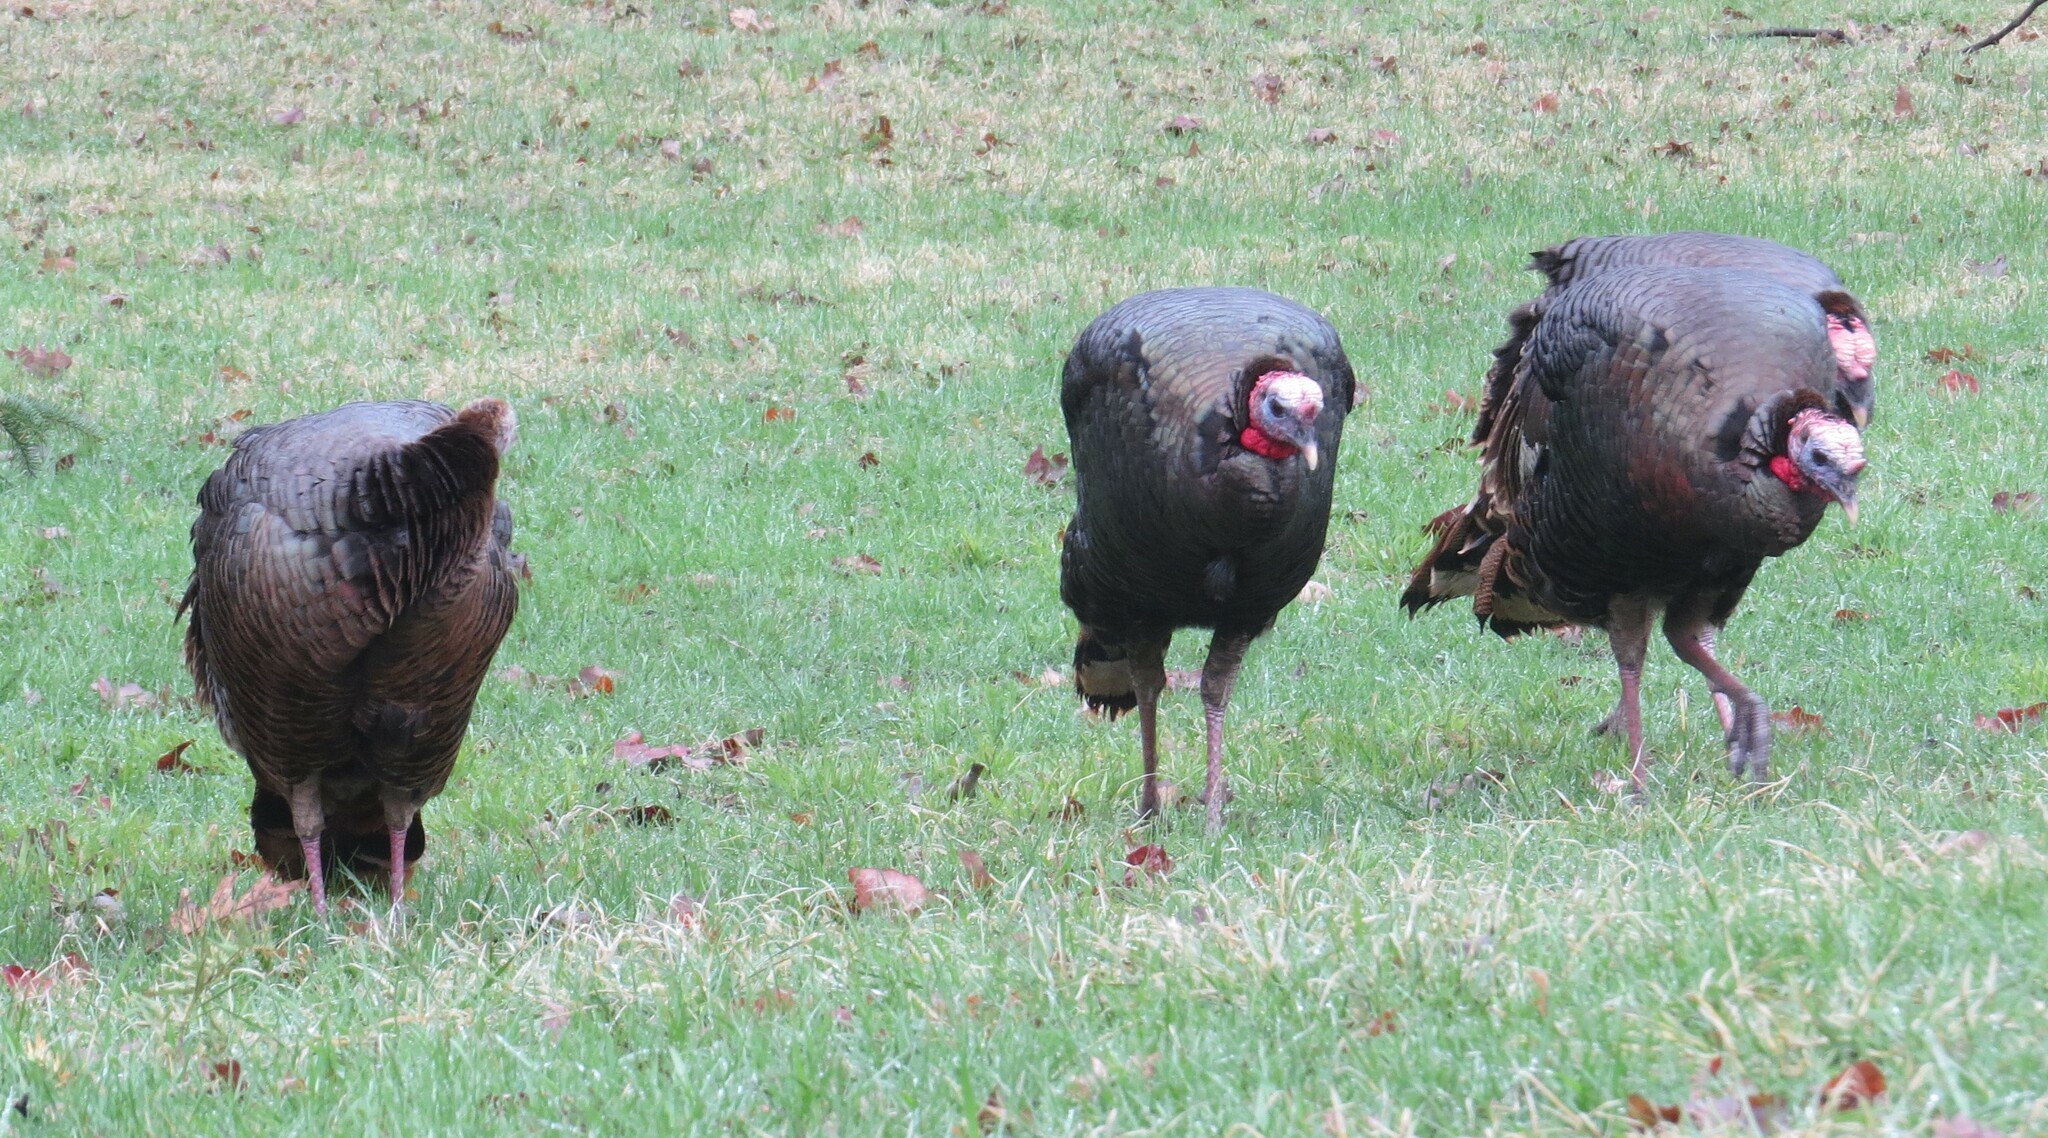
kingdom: Animalia
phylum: Chordata
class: Aves
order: Galliformes
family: Phasianidae
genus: Meleagris
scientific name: Meleagris gallopavo
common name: Wild turkey
